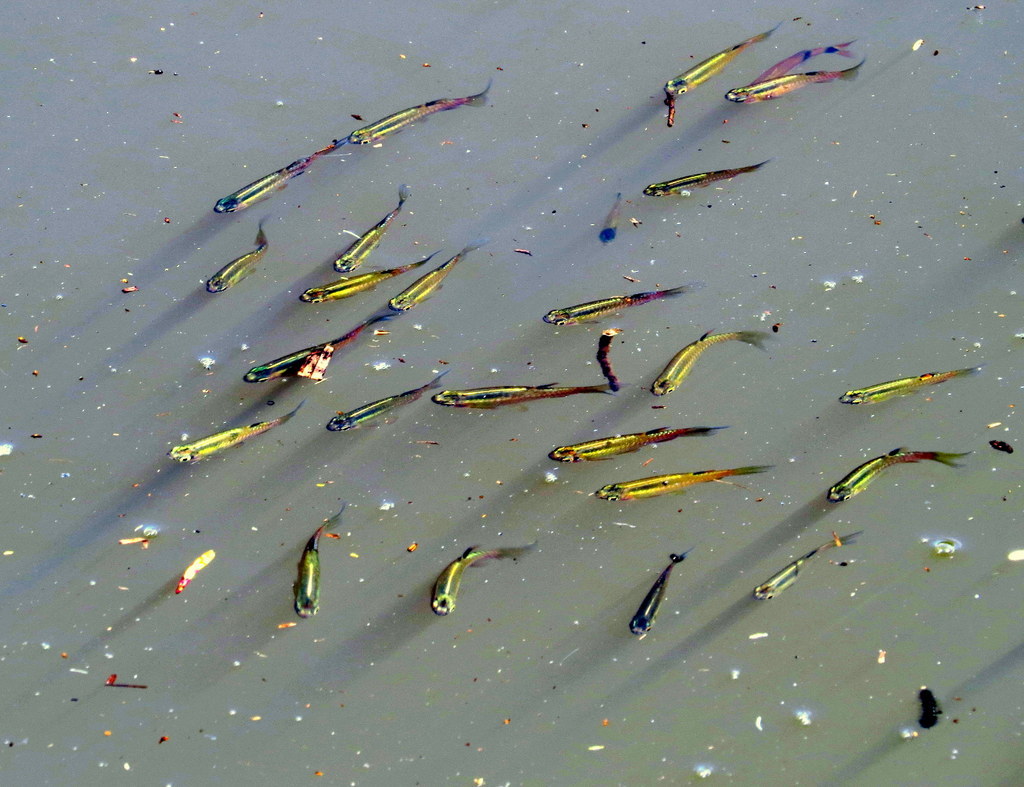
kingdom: Animalia
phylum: Chordata
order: Characiformes
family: Lebiasinidae
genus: Pyrrhulina
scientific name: Pyrrhulina australis
